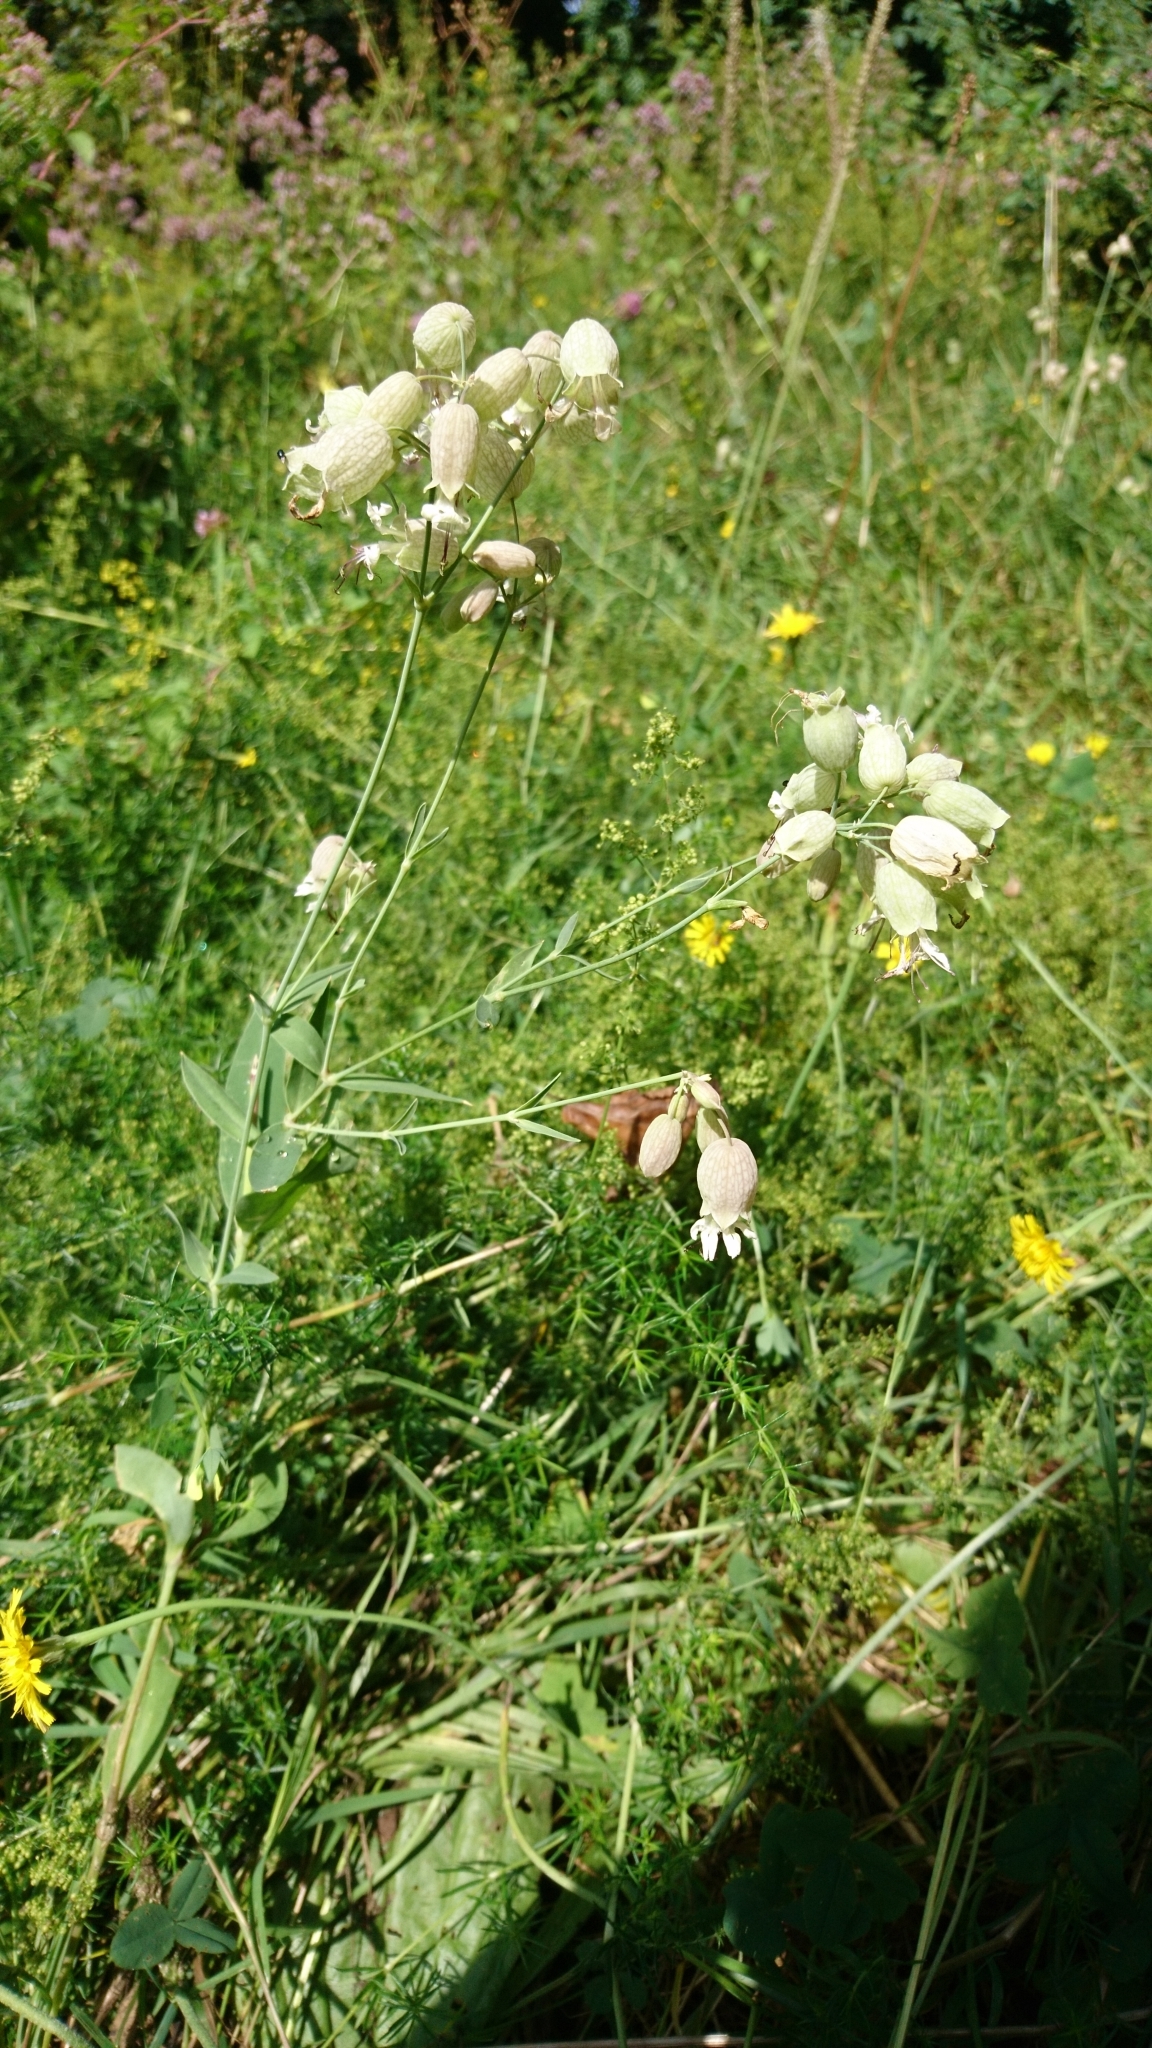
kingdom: Plantae
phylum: Tracheophyta
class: Magnoliopsida
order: Caryophyllales
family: Caryophyllaceae
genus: Silene
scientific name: Silene vulgaris
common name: Bladder campion
